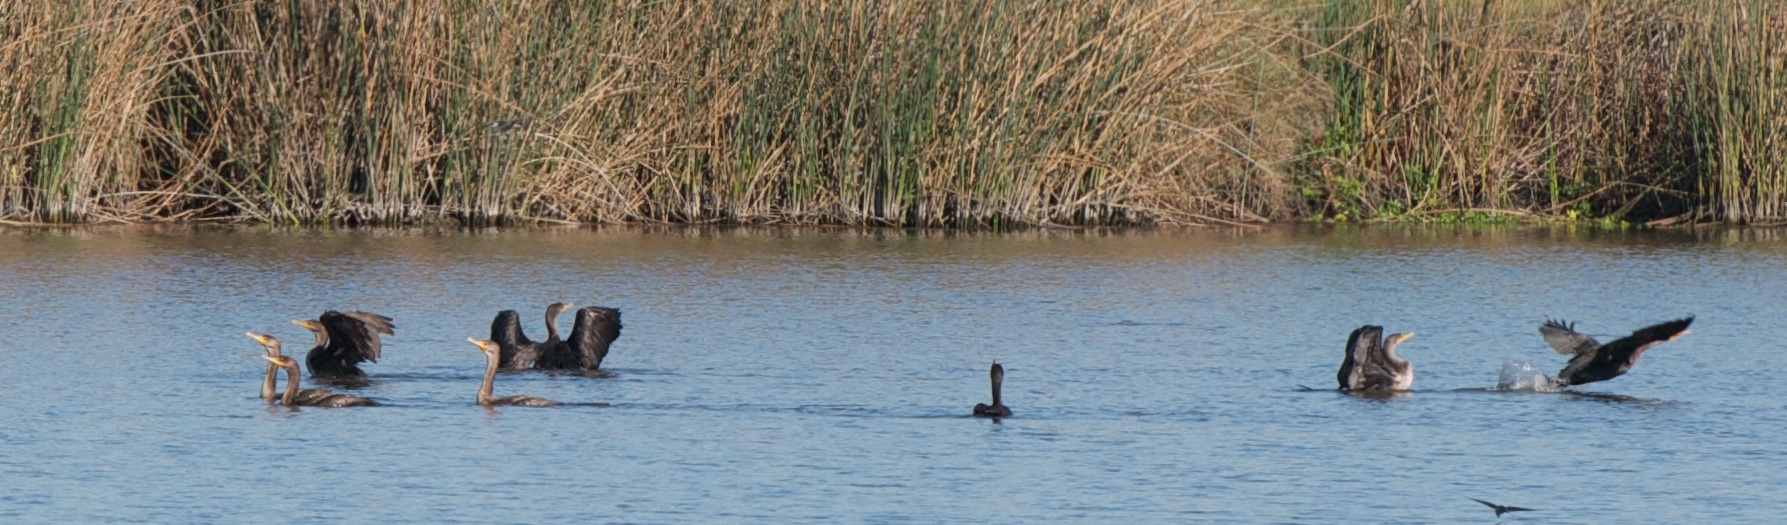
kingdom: Animalia
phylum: Chordata
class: Aves
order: Suliformes
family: Phalacrocoracidae
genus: Phalacrocorax
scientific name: Phalacrocorax auritus
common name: Double-crested cormorant
